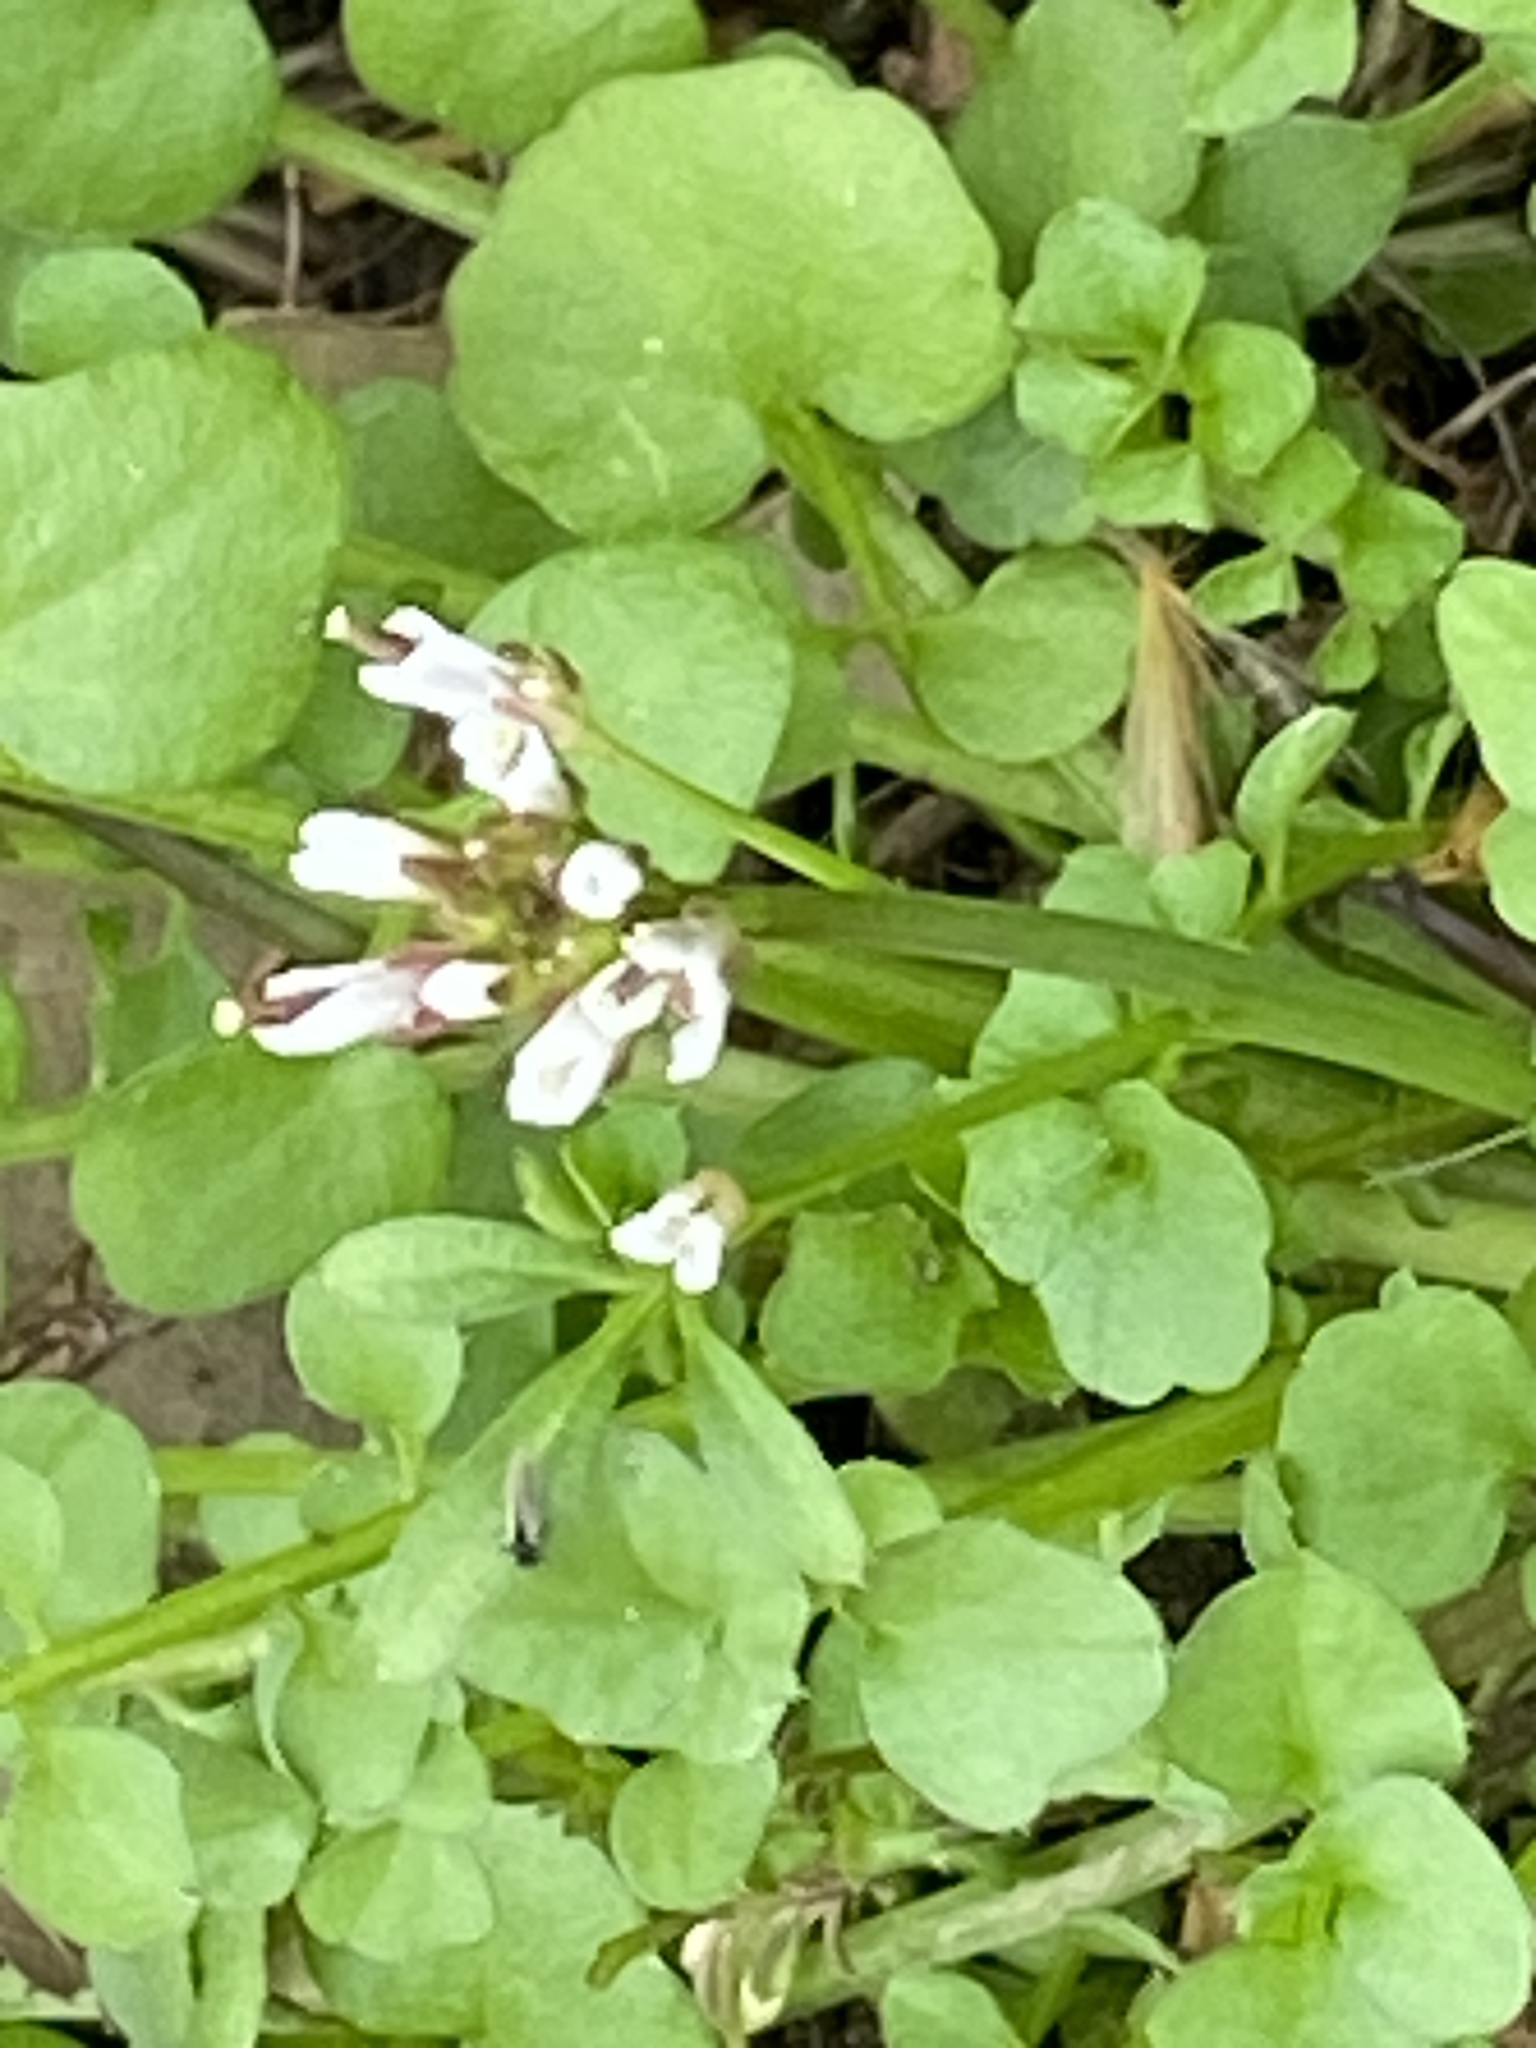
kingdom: Plantae
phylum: Tracheophyta
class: Magnoliopsida
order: Brassicales
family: Brassicaceae
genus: Cardamine
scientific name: Cardamine hirsuta
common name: Hairy bittercress
